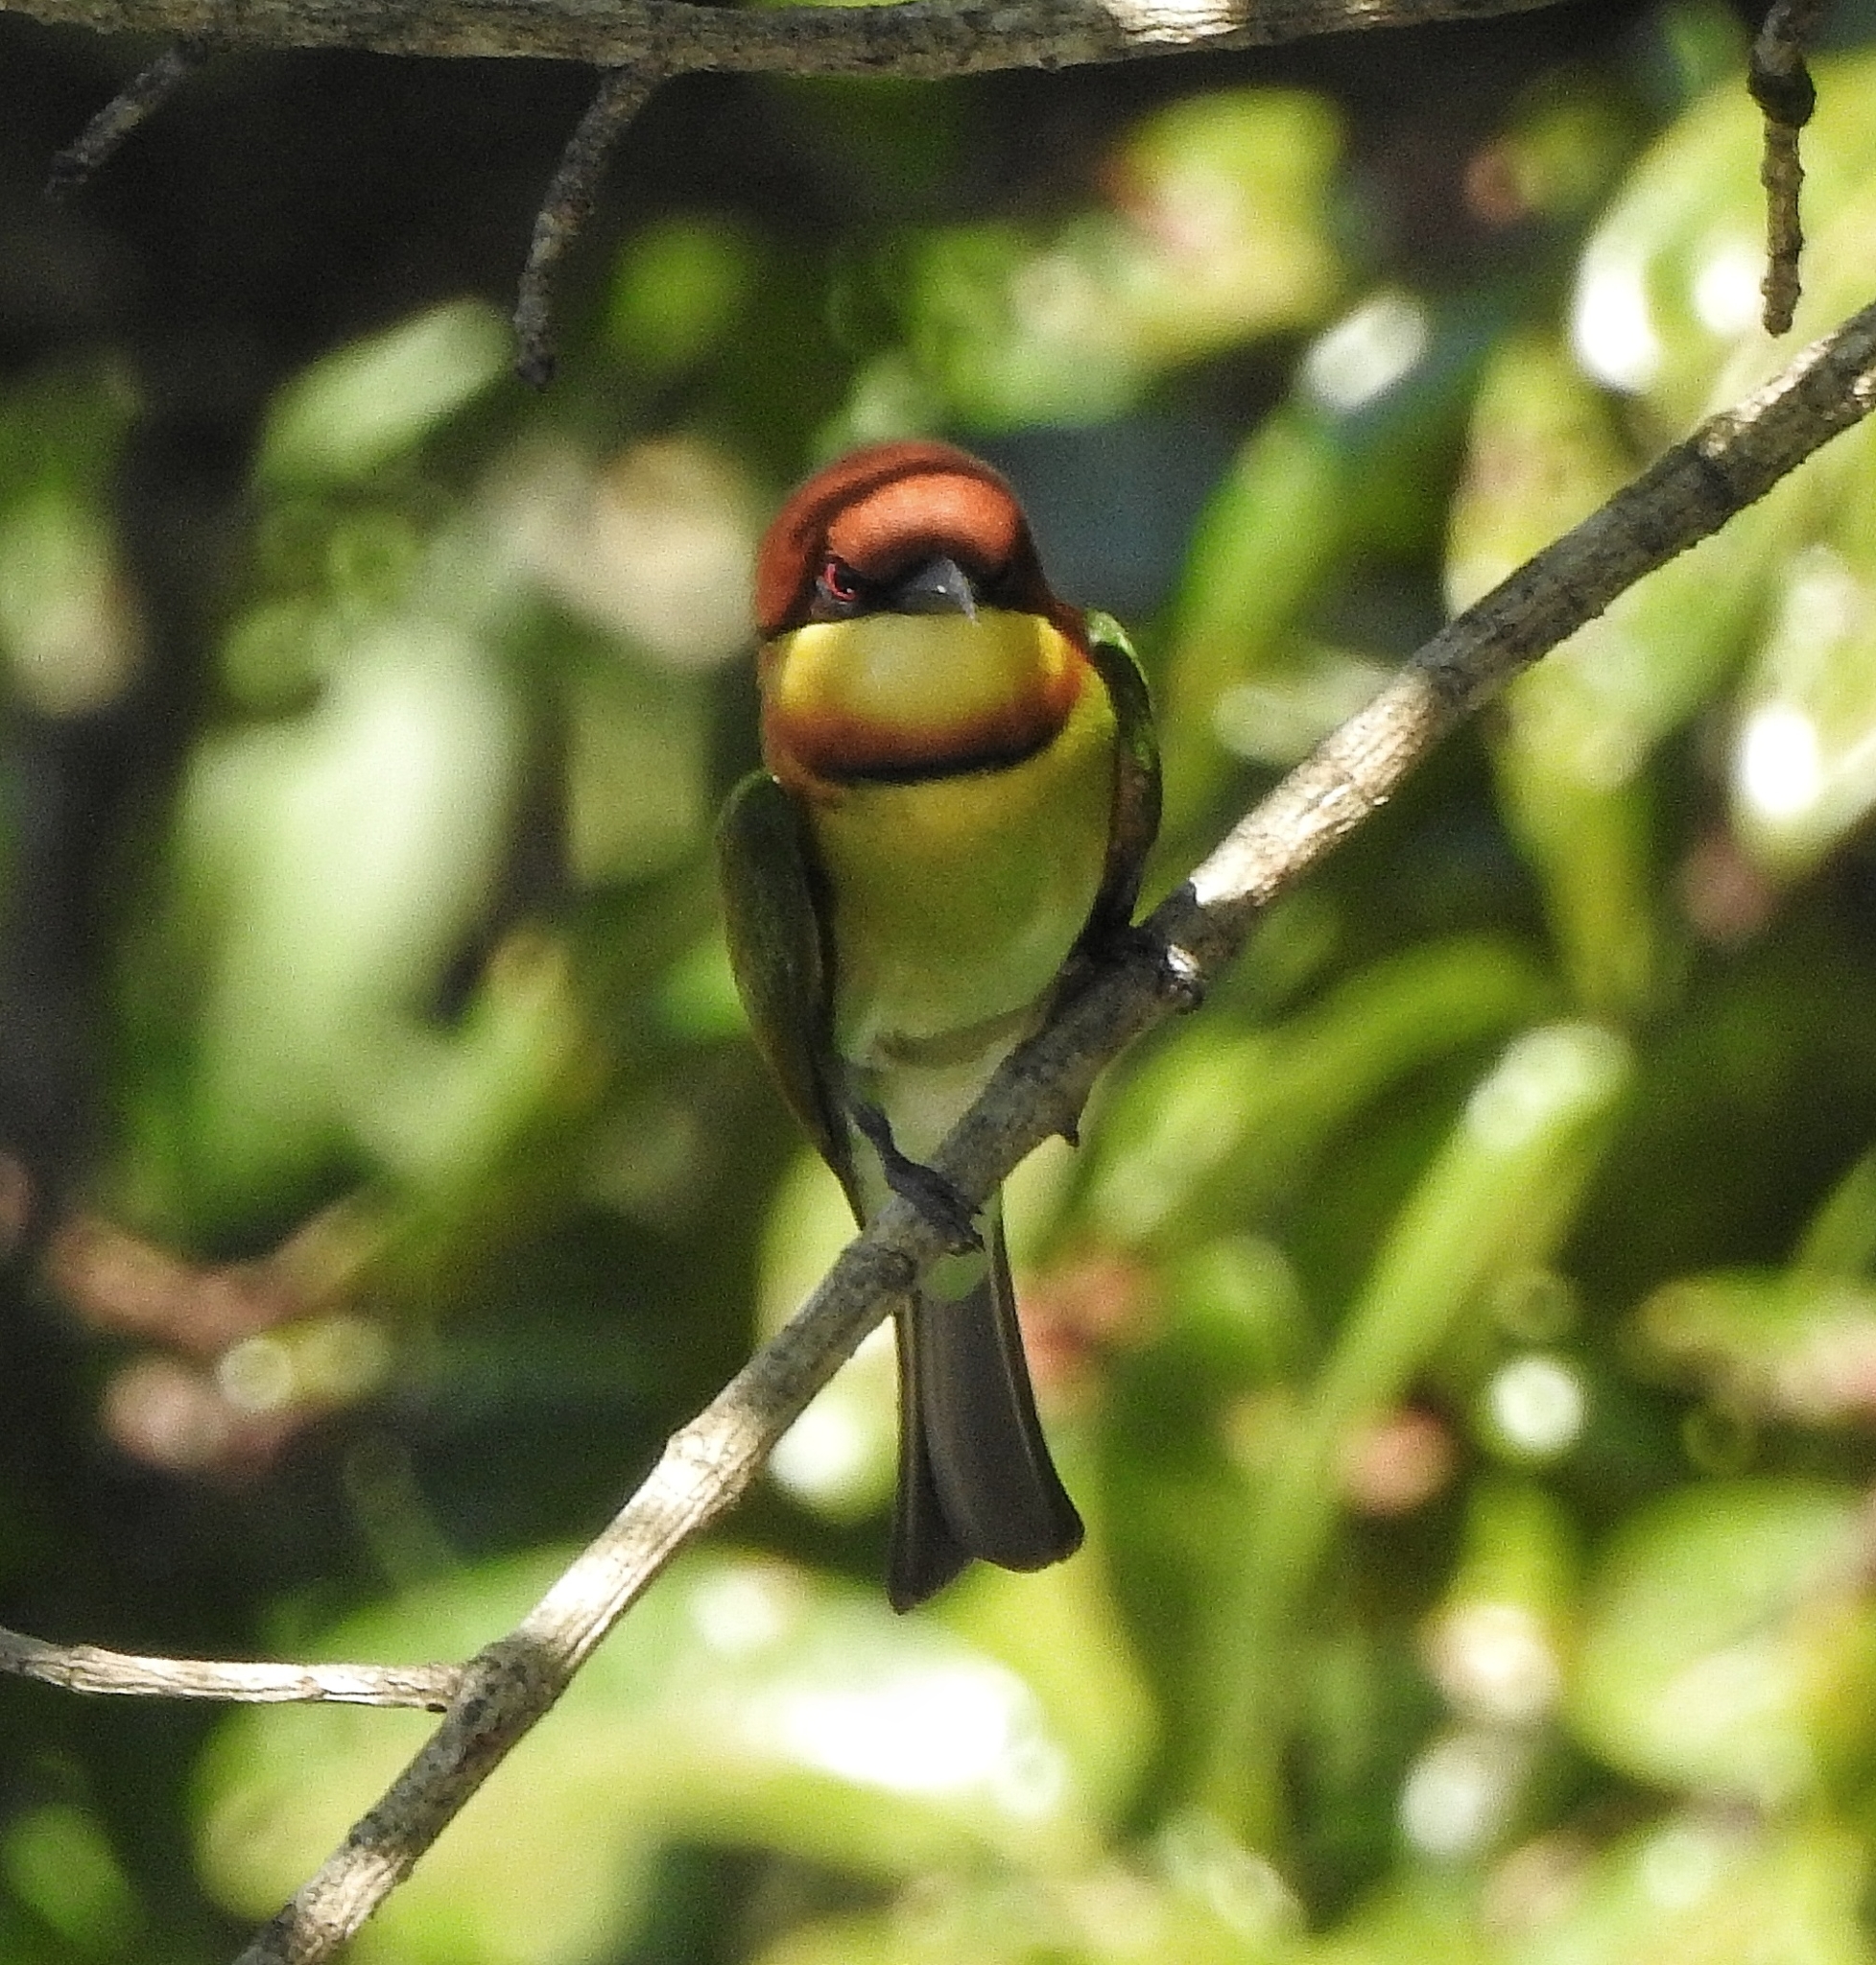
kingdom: Animalia
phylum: Chordata
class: Aves
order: Coraciiformes
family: Meropidae
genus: Merops
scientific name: Merops leschenaulti
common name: Chestnut-headed bee-eater
